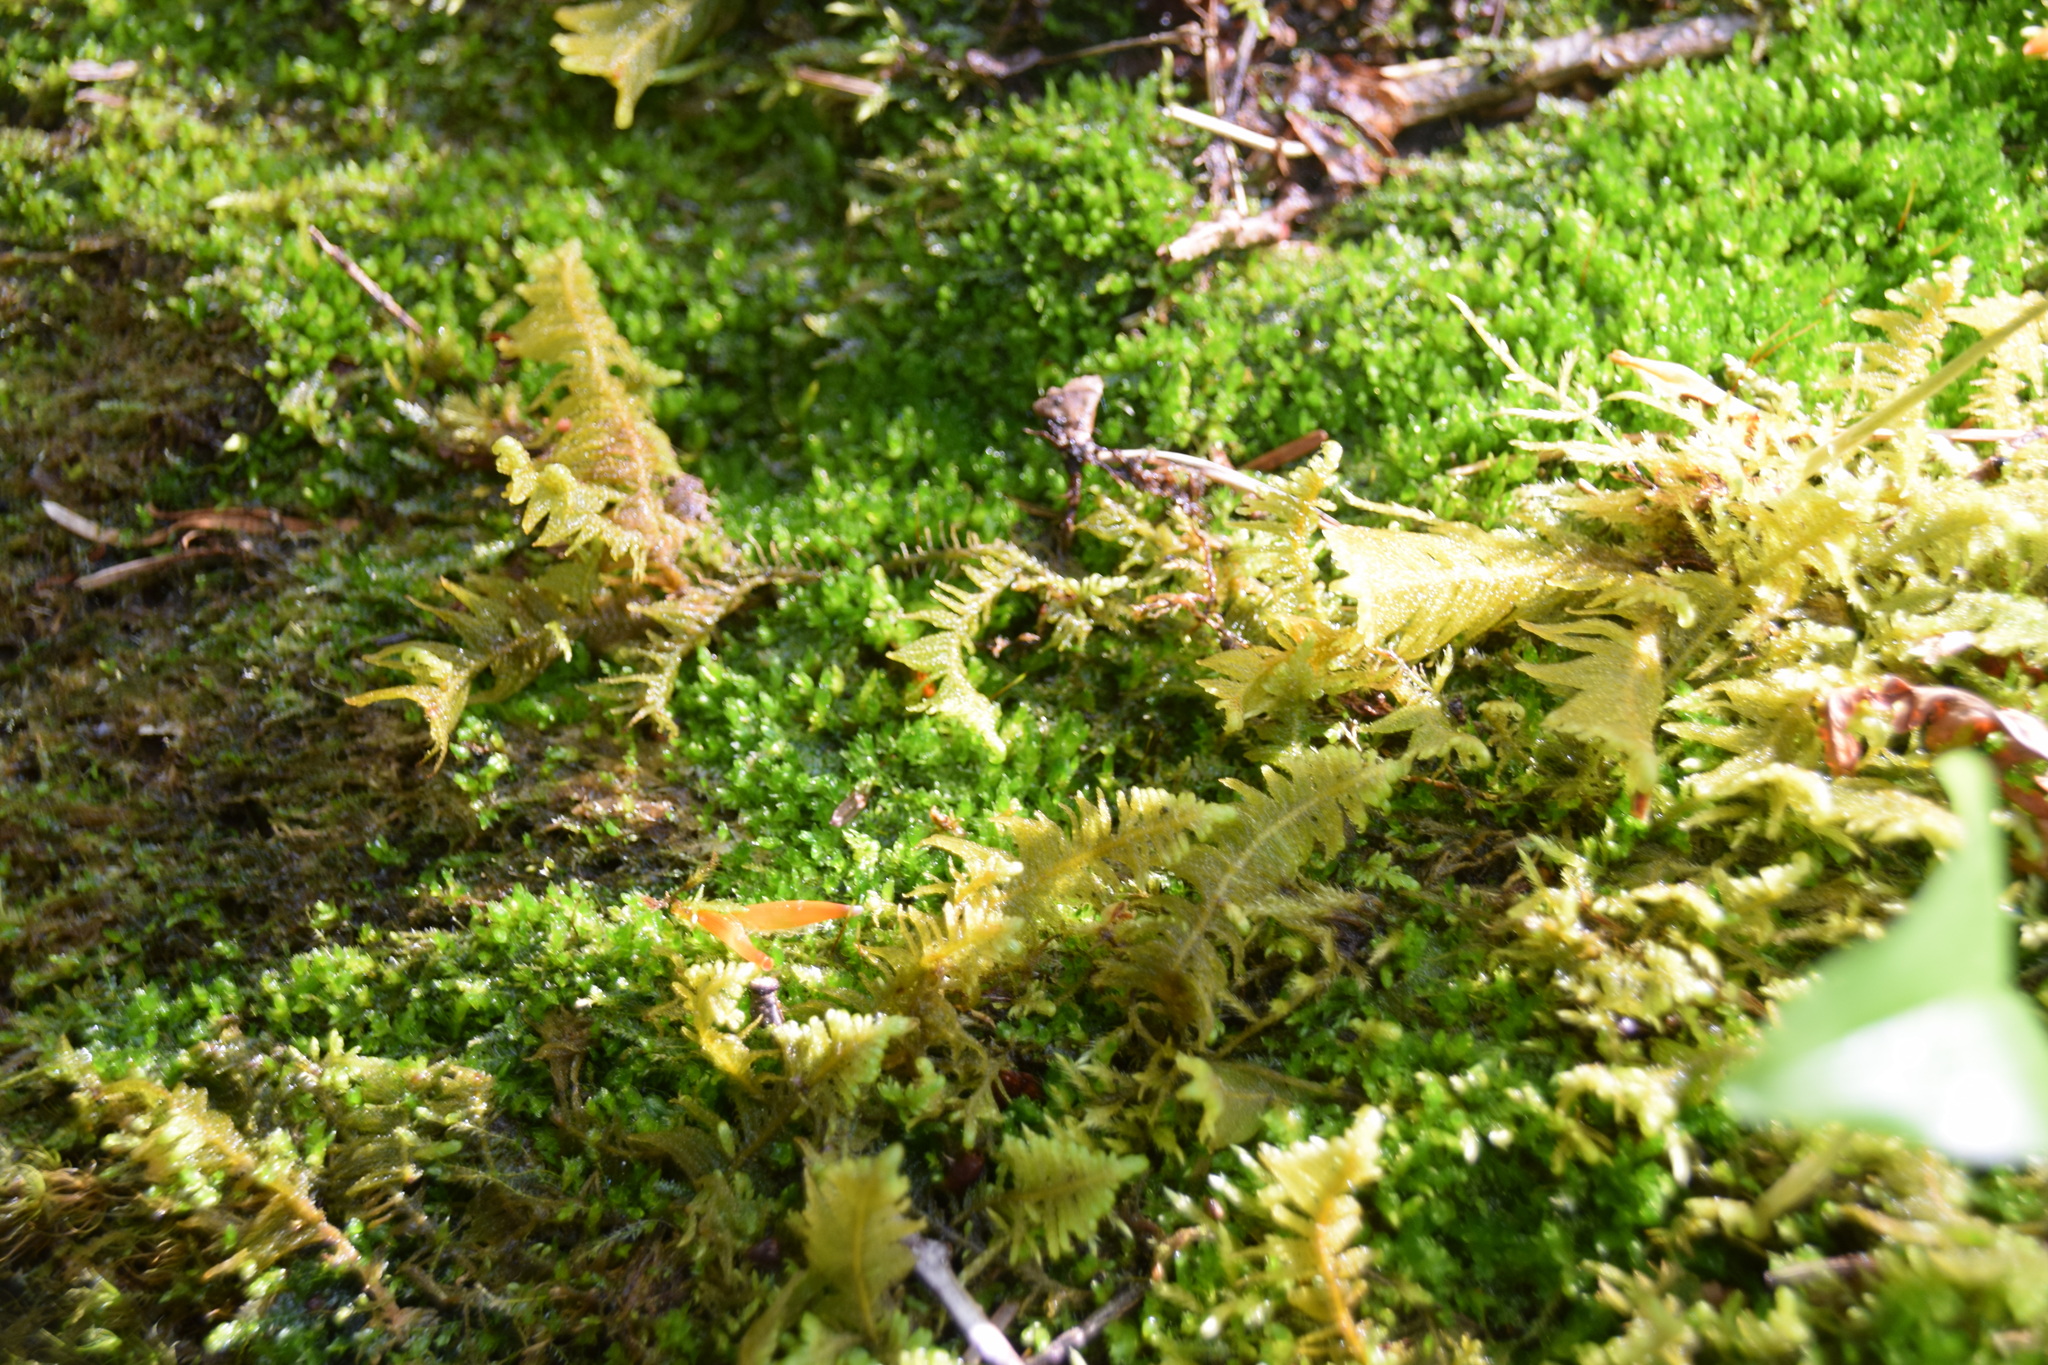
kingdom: Plantae
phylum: Bryophyta
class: Bryopsida
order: Hypnales
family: Pylaisiaceae
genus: Ptilium
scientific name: Ptilium crista-castrensis
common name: Knight's plume moss
